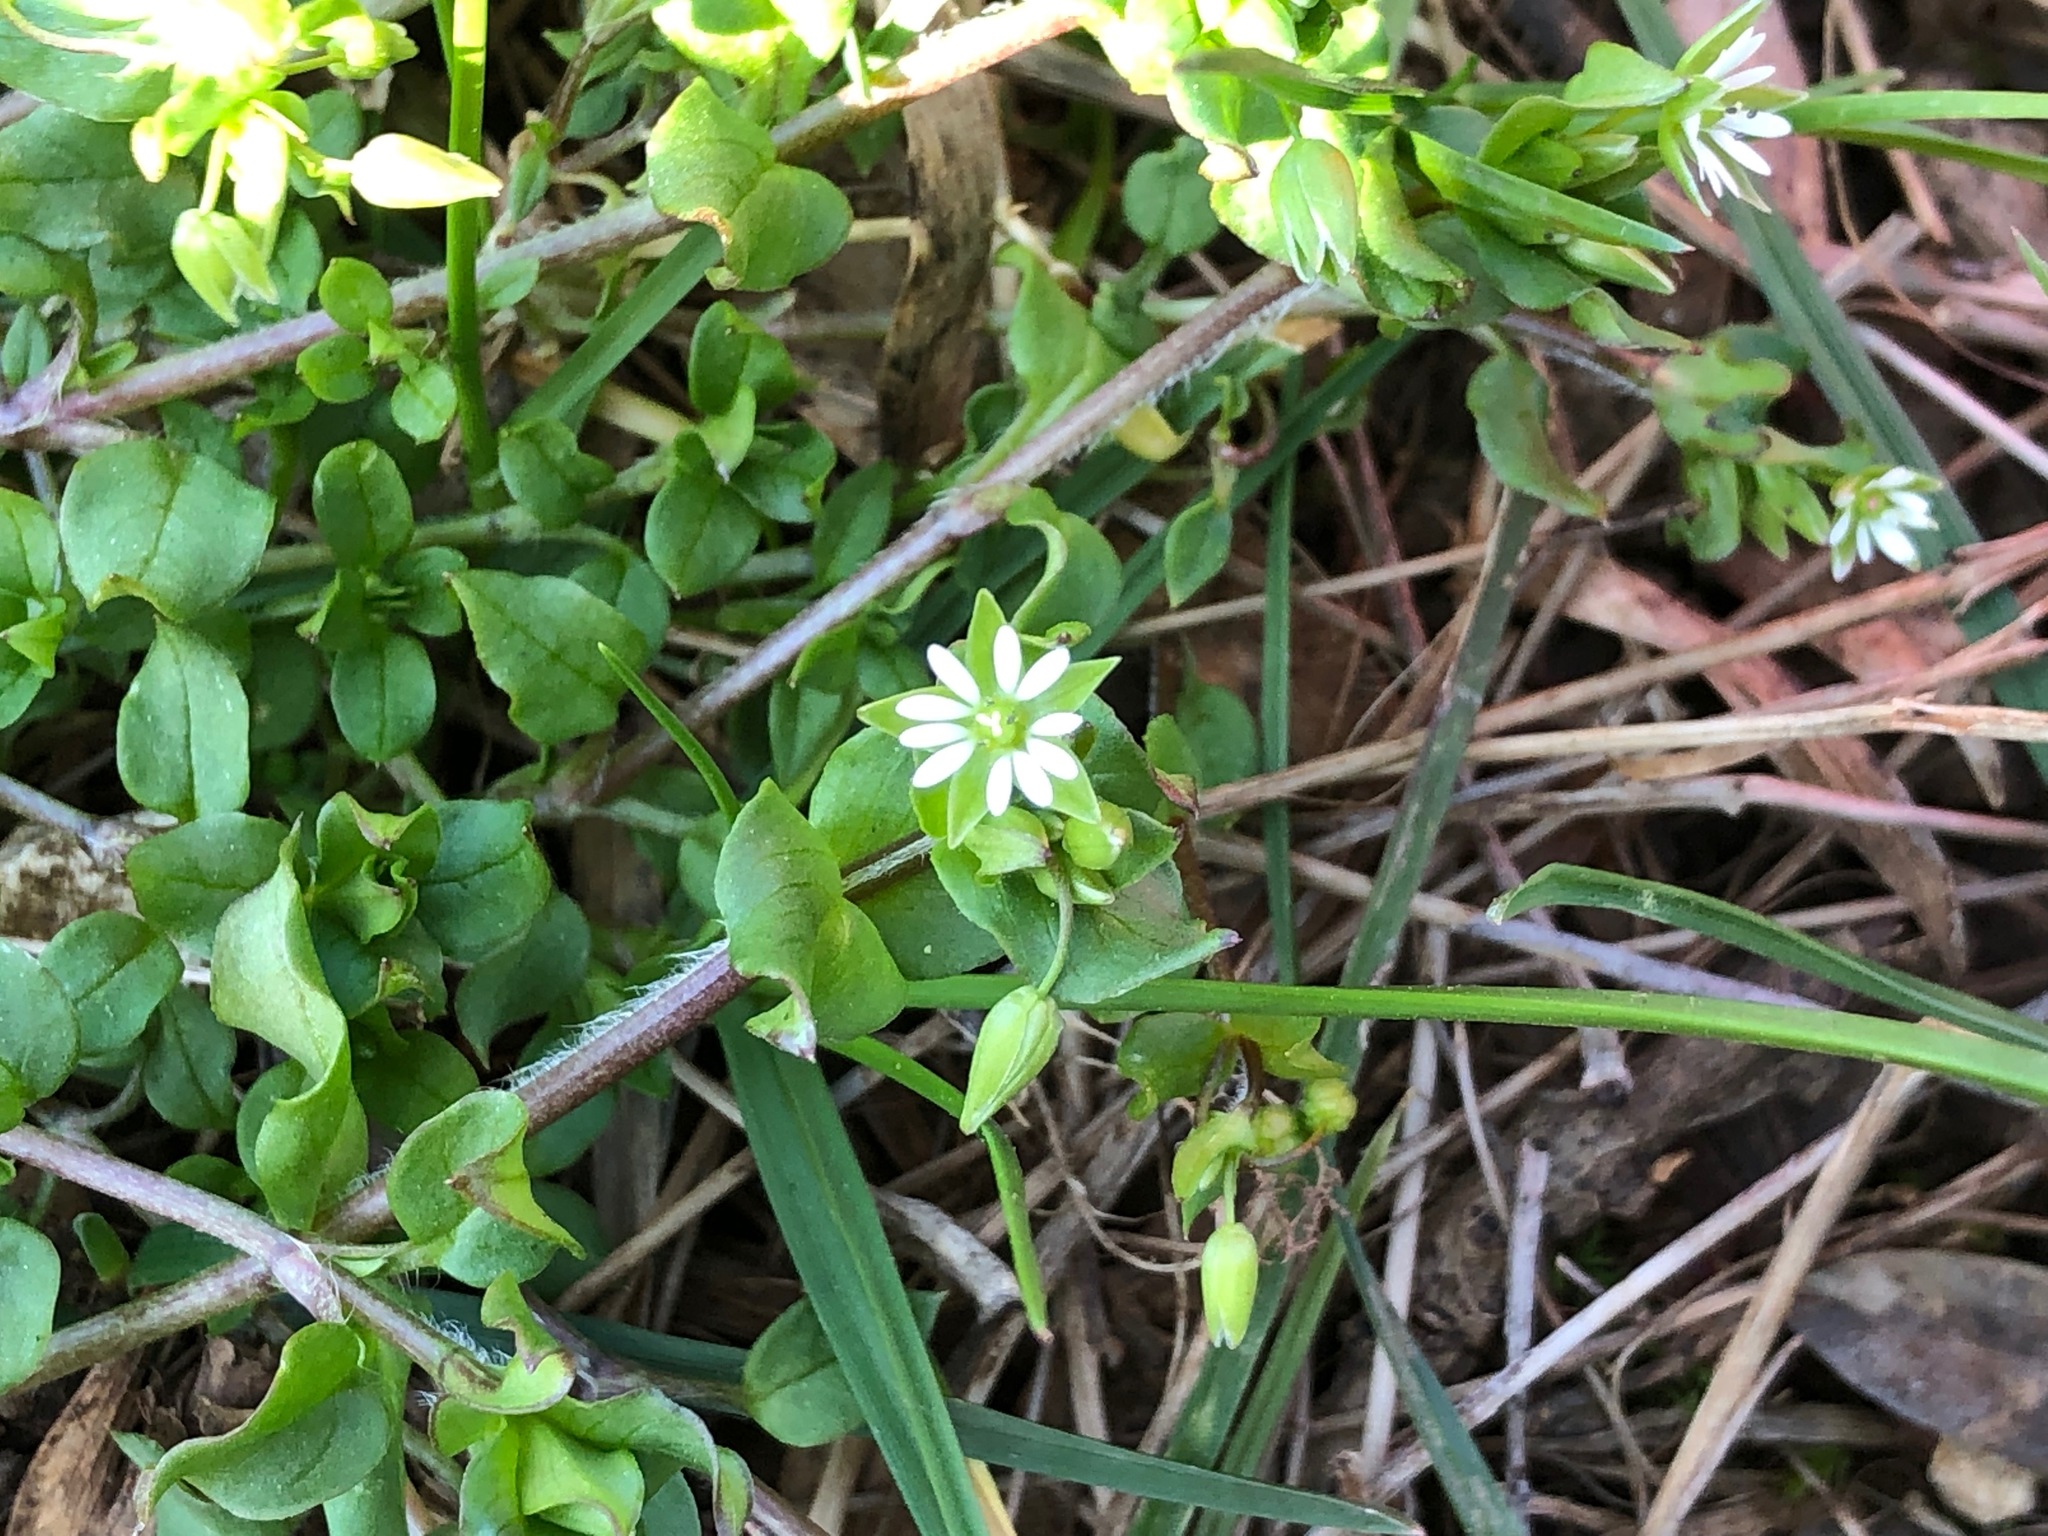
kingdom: Plantae
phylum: Tracheophyta
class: Magnoliopsida
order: Caryophyllales
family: Caryophyllaceae
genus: Stellaria
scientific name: Stellaria media
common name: Common chickweed
